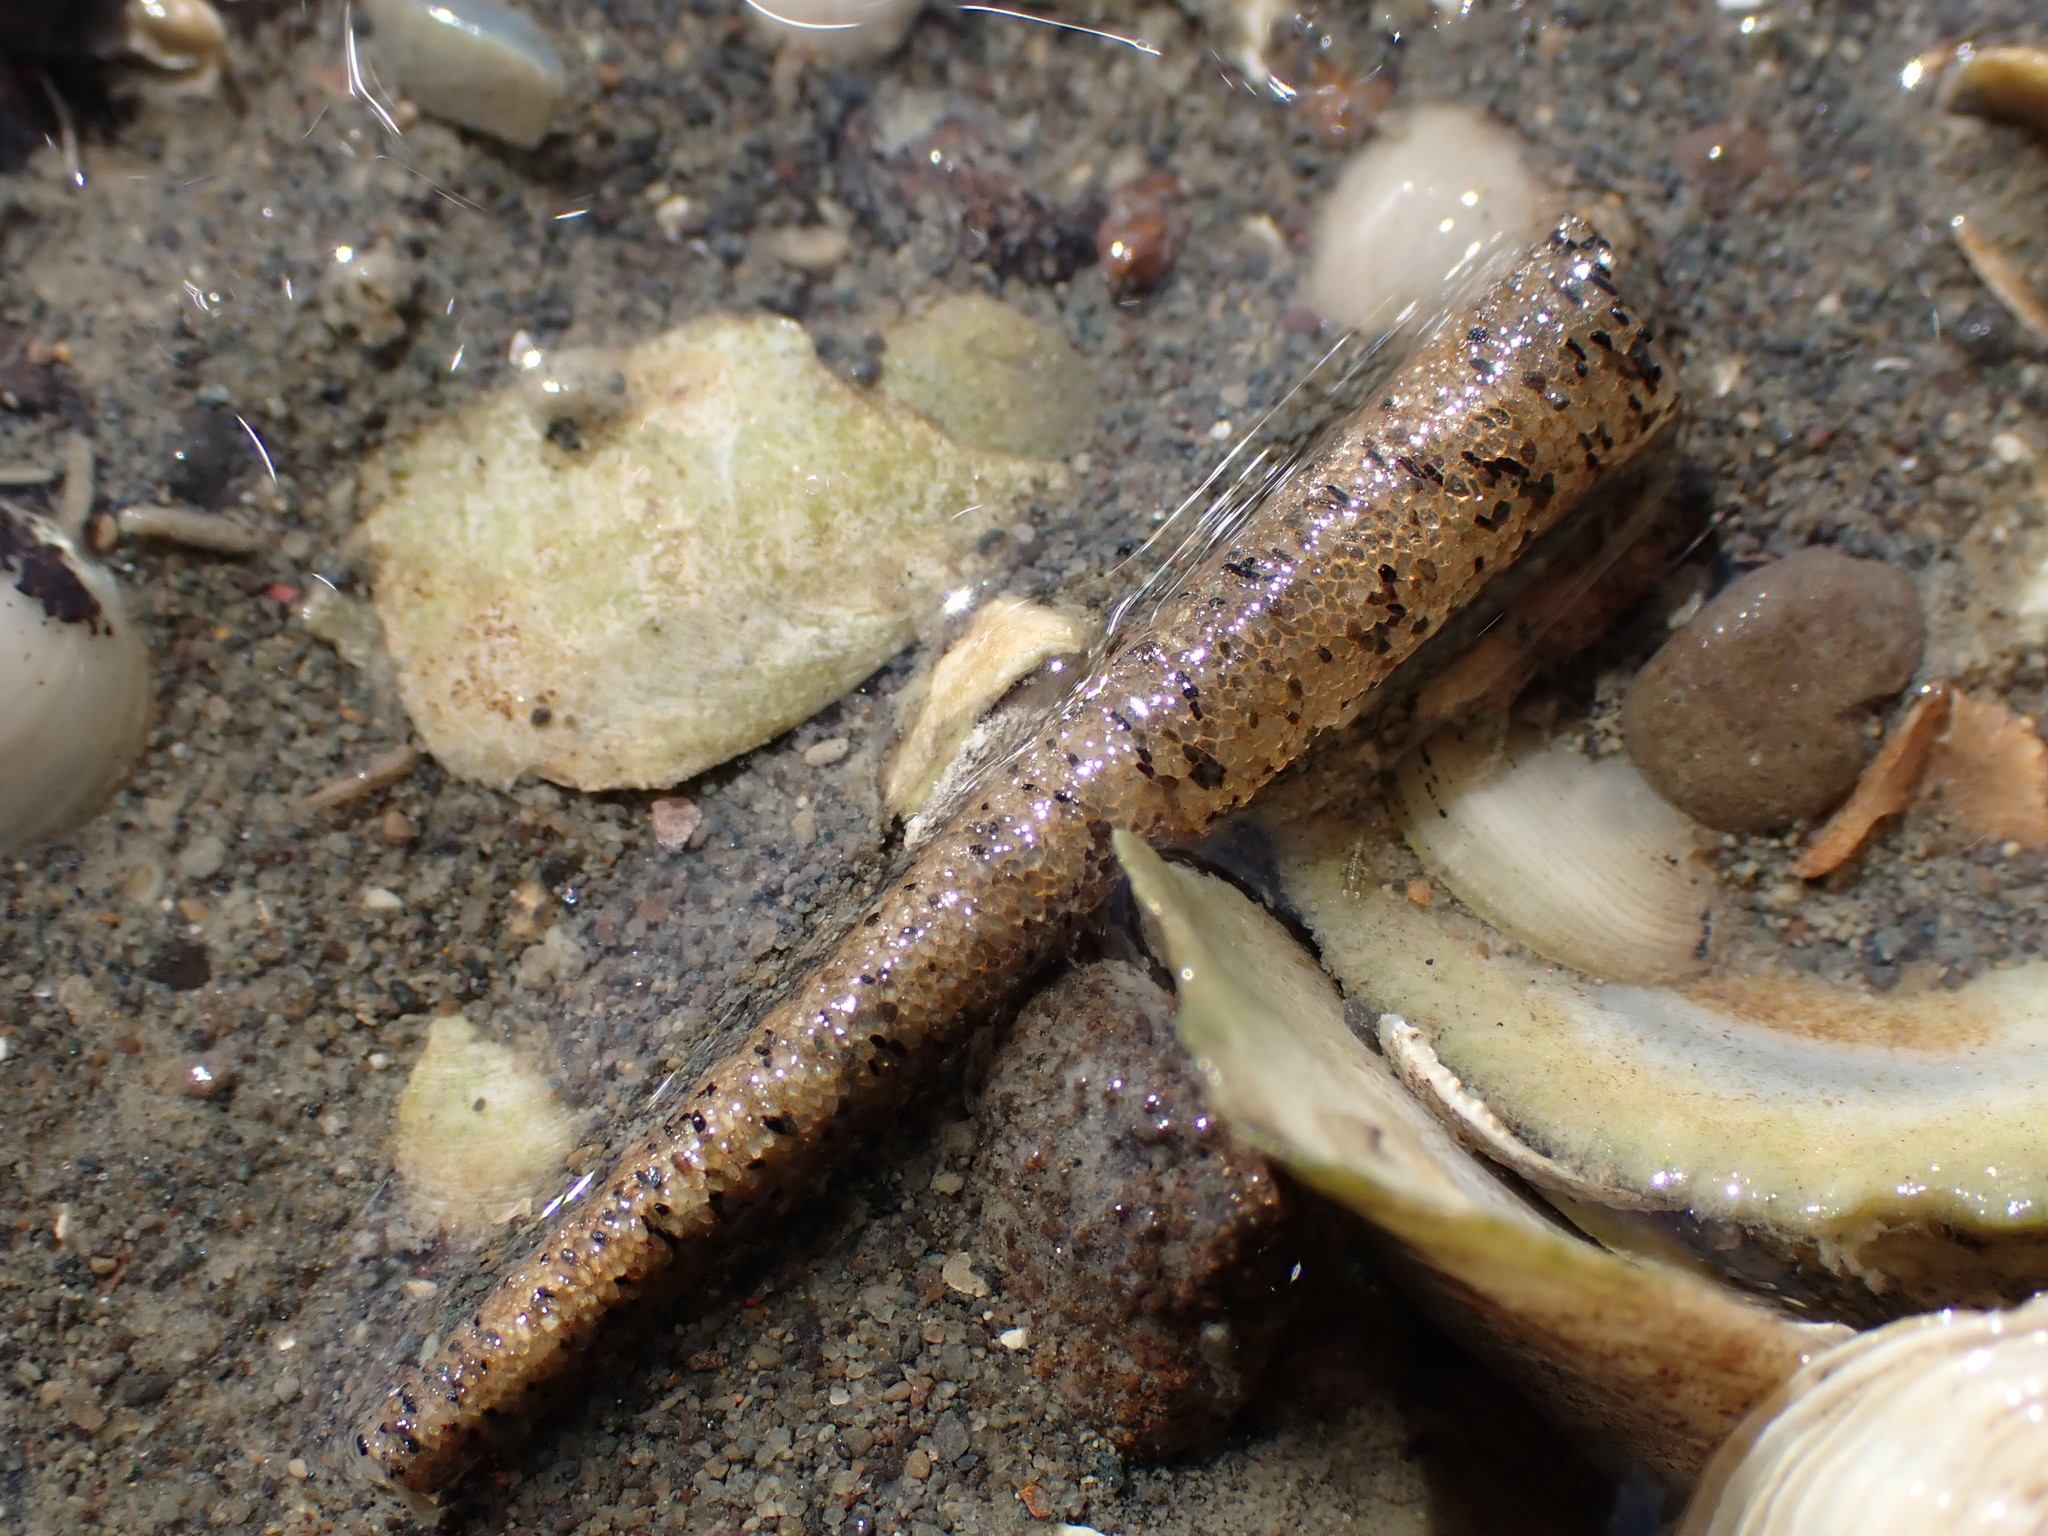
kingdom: Animalia
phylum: Annelida
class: Polychaeta
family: Pectinariidae
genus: Lagis
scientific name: Lagis australis
